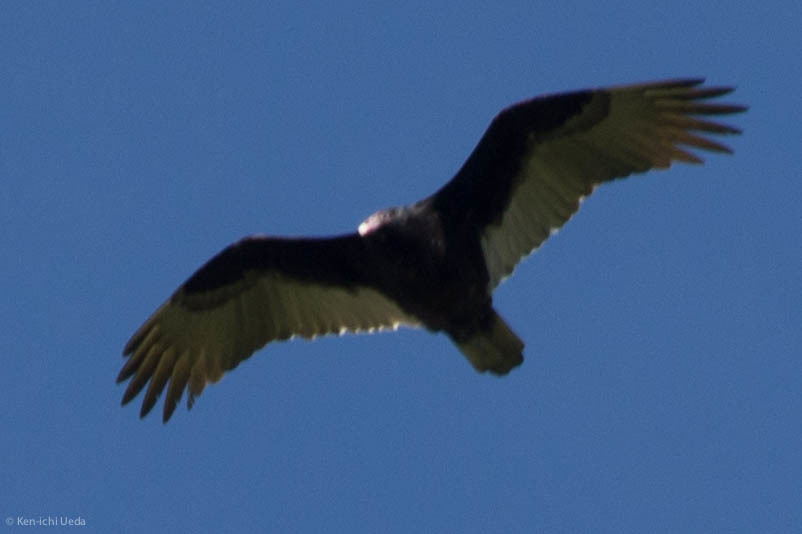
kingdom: Animalia
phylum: Chordata
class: Aves
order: Accipitriformes
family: Cathartidae
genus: Cathartes
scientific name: Cathartes aura
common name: Turkey vulture
